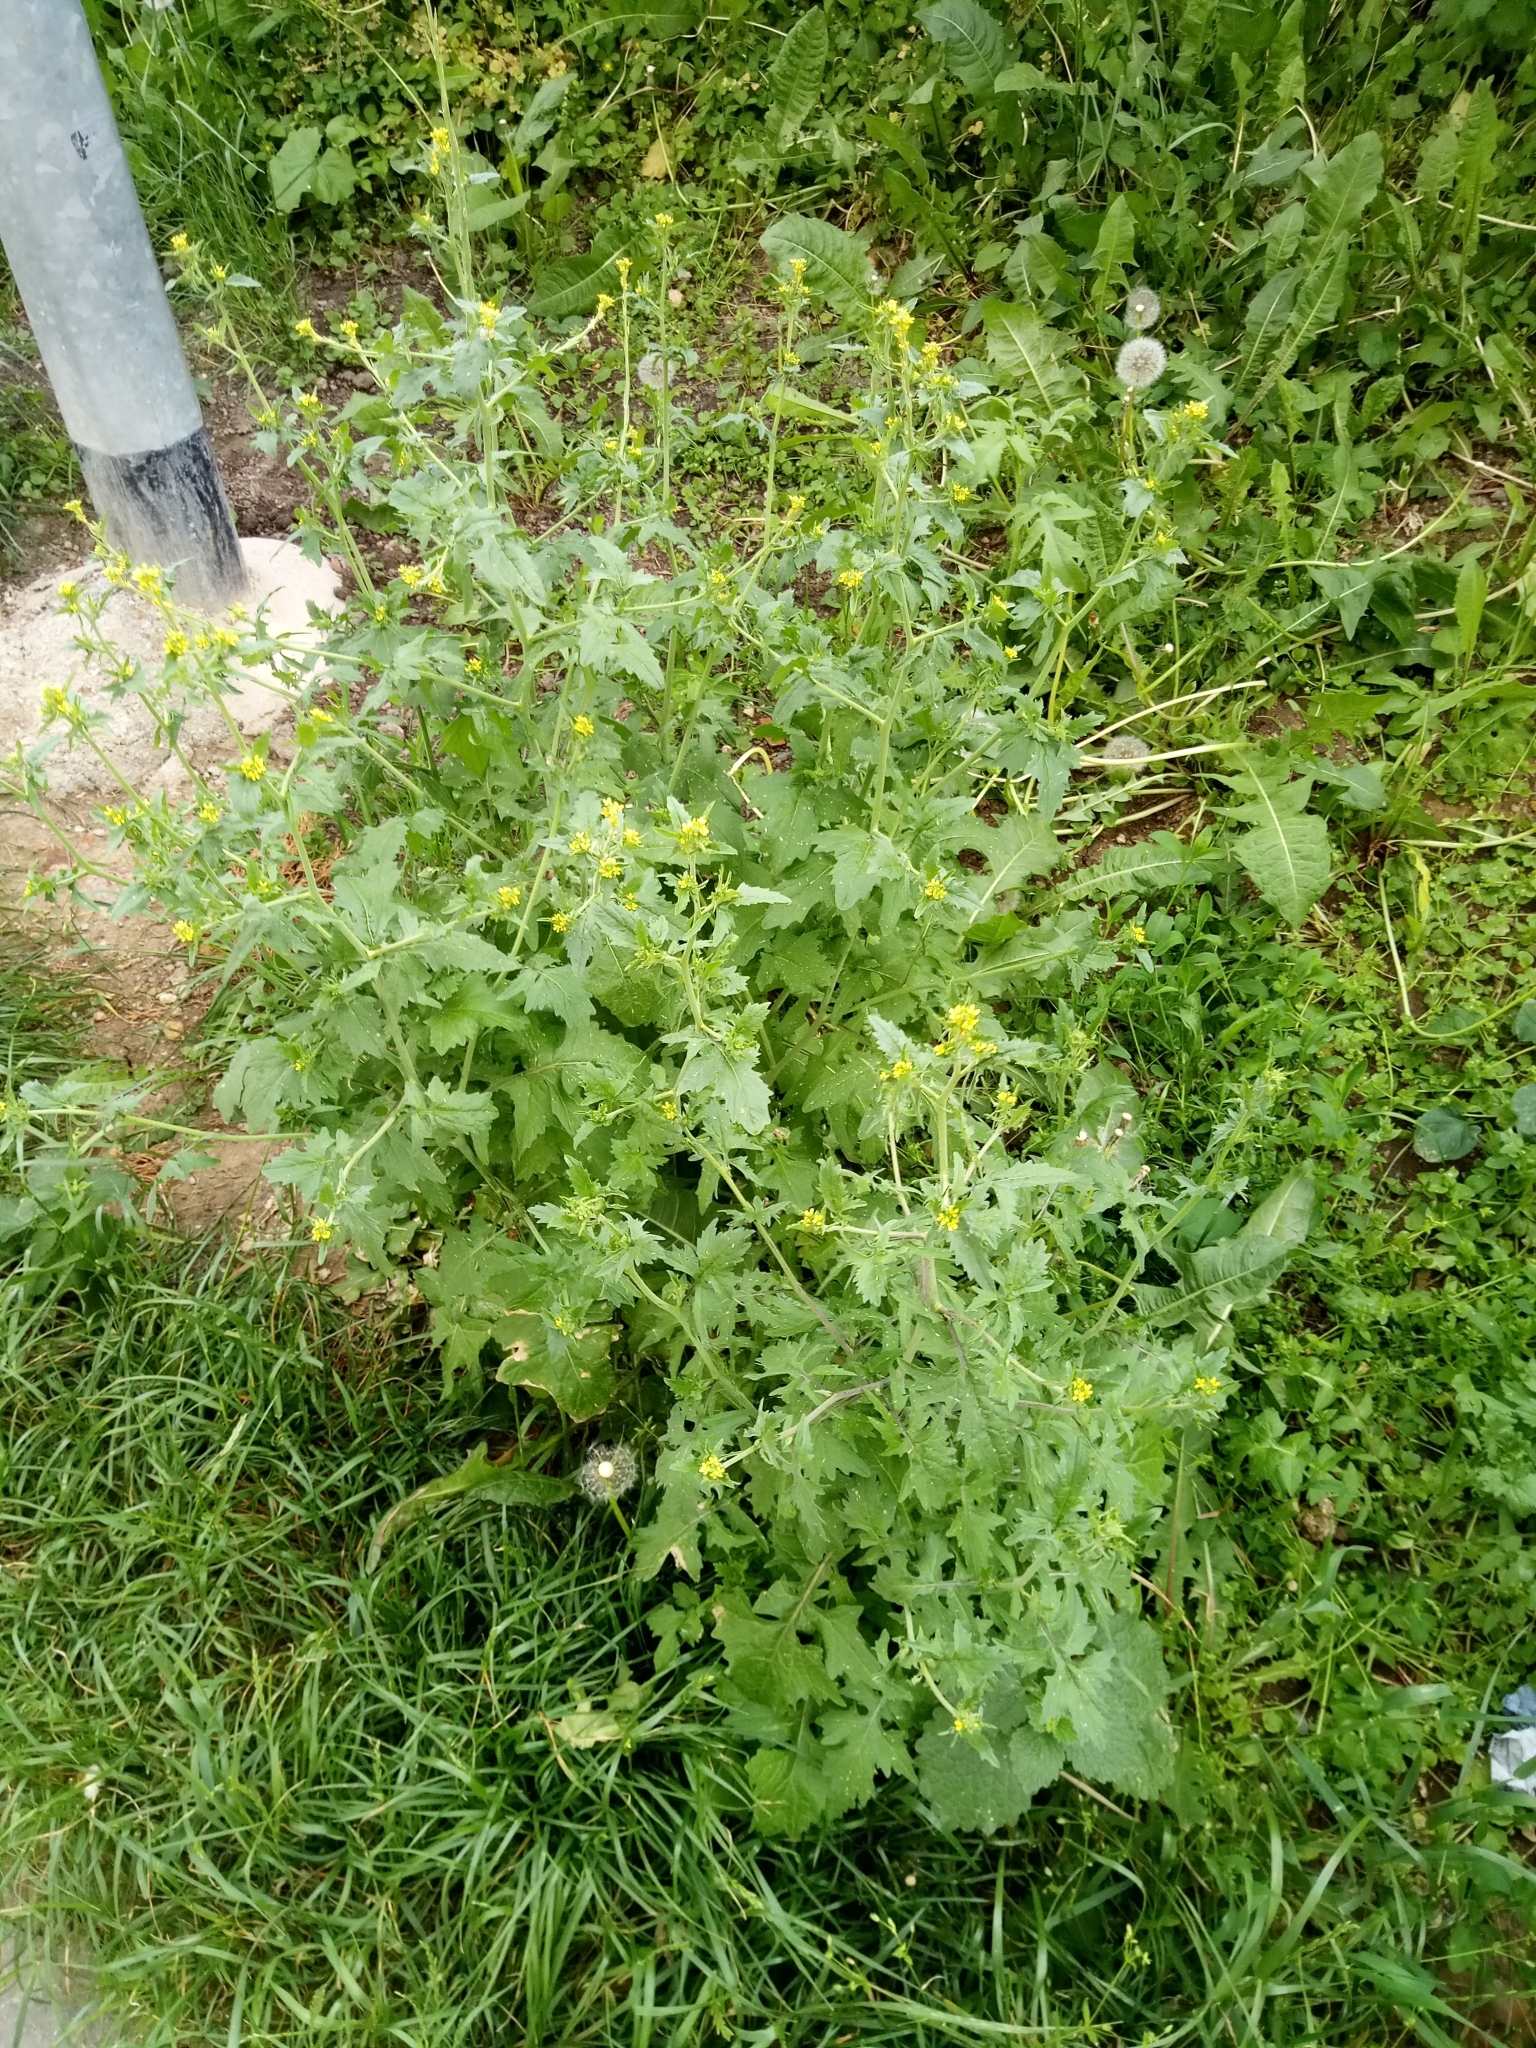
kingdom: Plantae
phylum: Tracheophyta
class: Magnoliopsida
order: Brassicales
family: Brassicaceae
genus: Sisymbrium
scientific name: Sisymbrium officinale
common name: Hedge mustard
